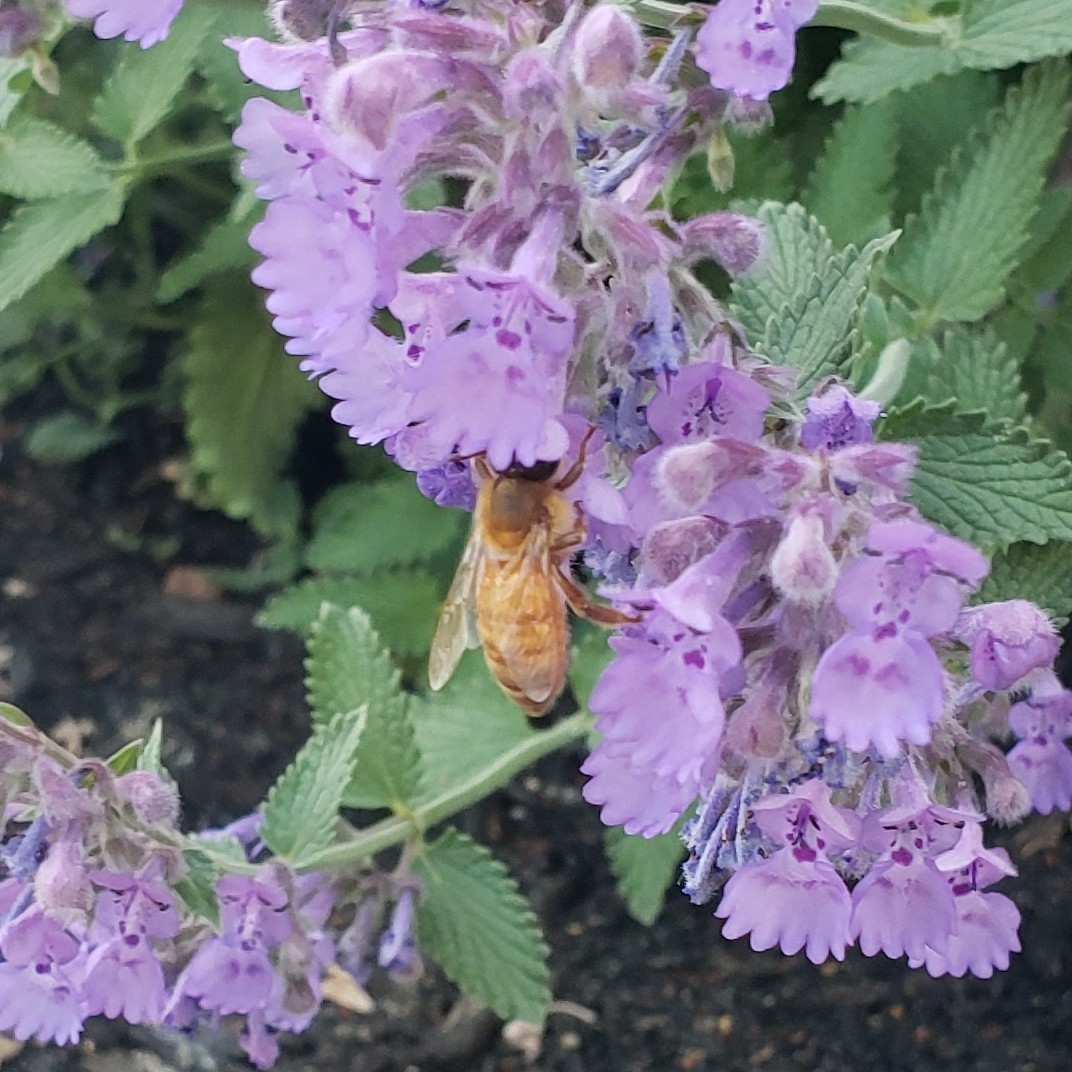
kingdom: Animalia
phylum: Arthropoda
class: Insecta
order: Hymenoptera
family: Apidae
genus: Apis
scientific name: Apis mellifera
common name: Honey bee
